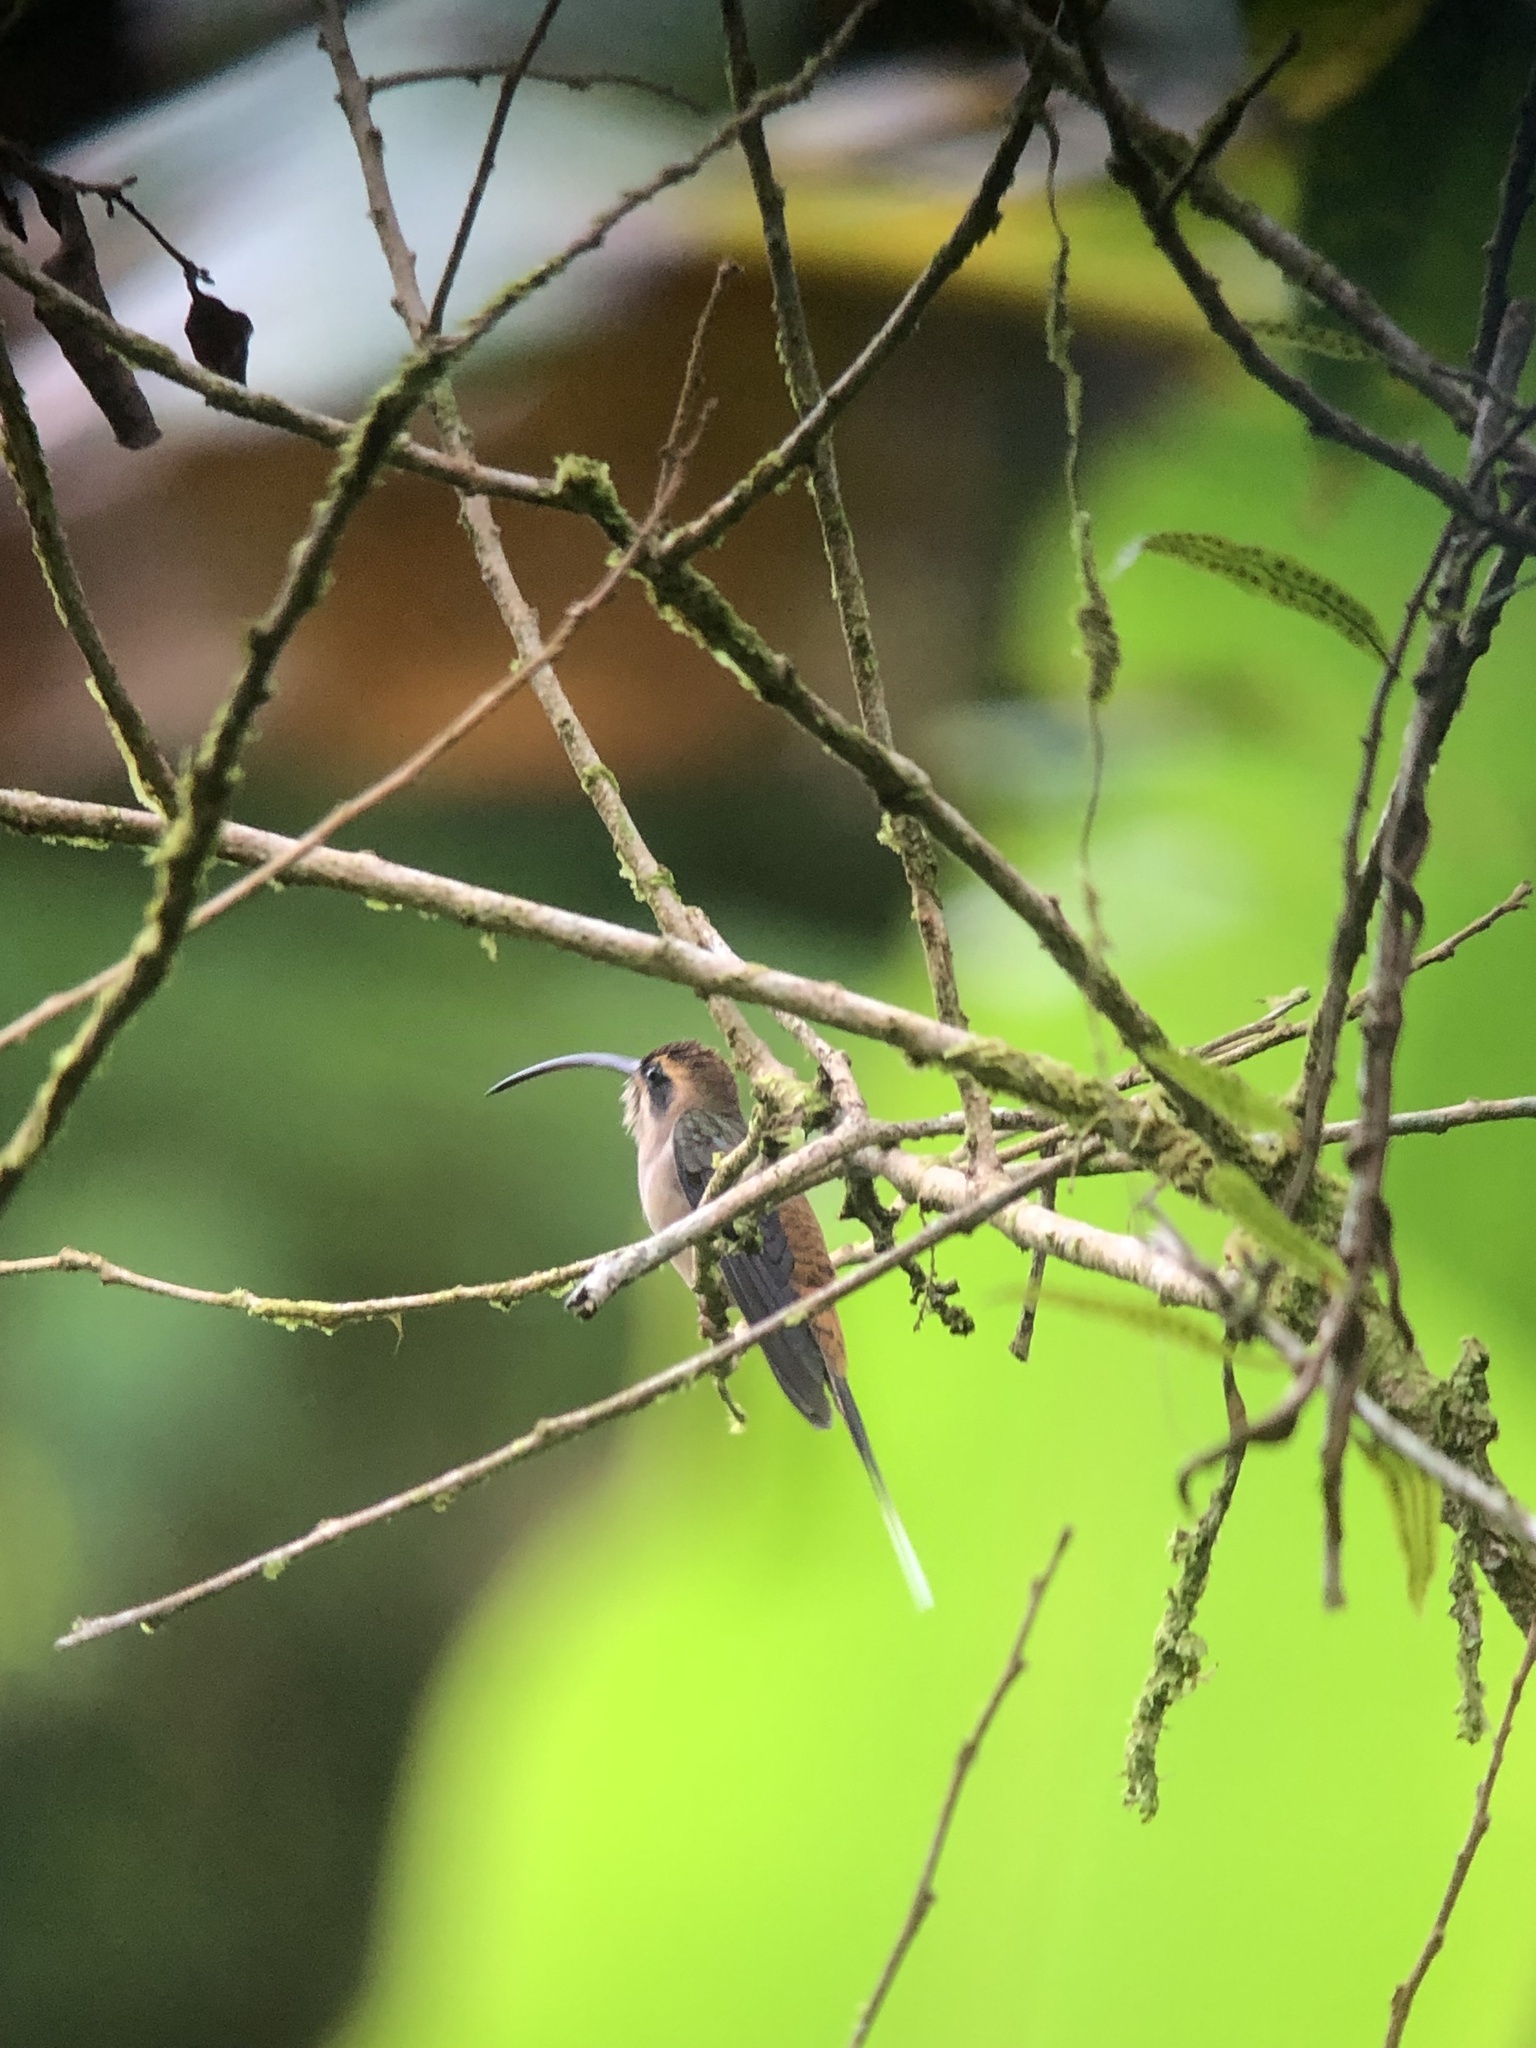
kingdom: Animalia
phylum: Chordata
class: Aves
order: Apodiformes
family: Trochilidae
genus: Phaethornis
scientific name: Phaethornis longirostris
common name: Long-billed hermit
